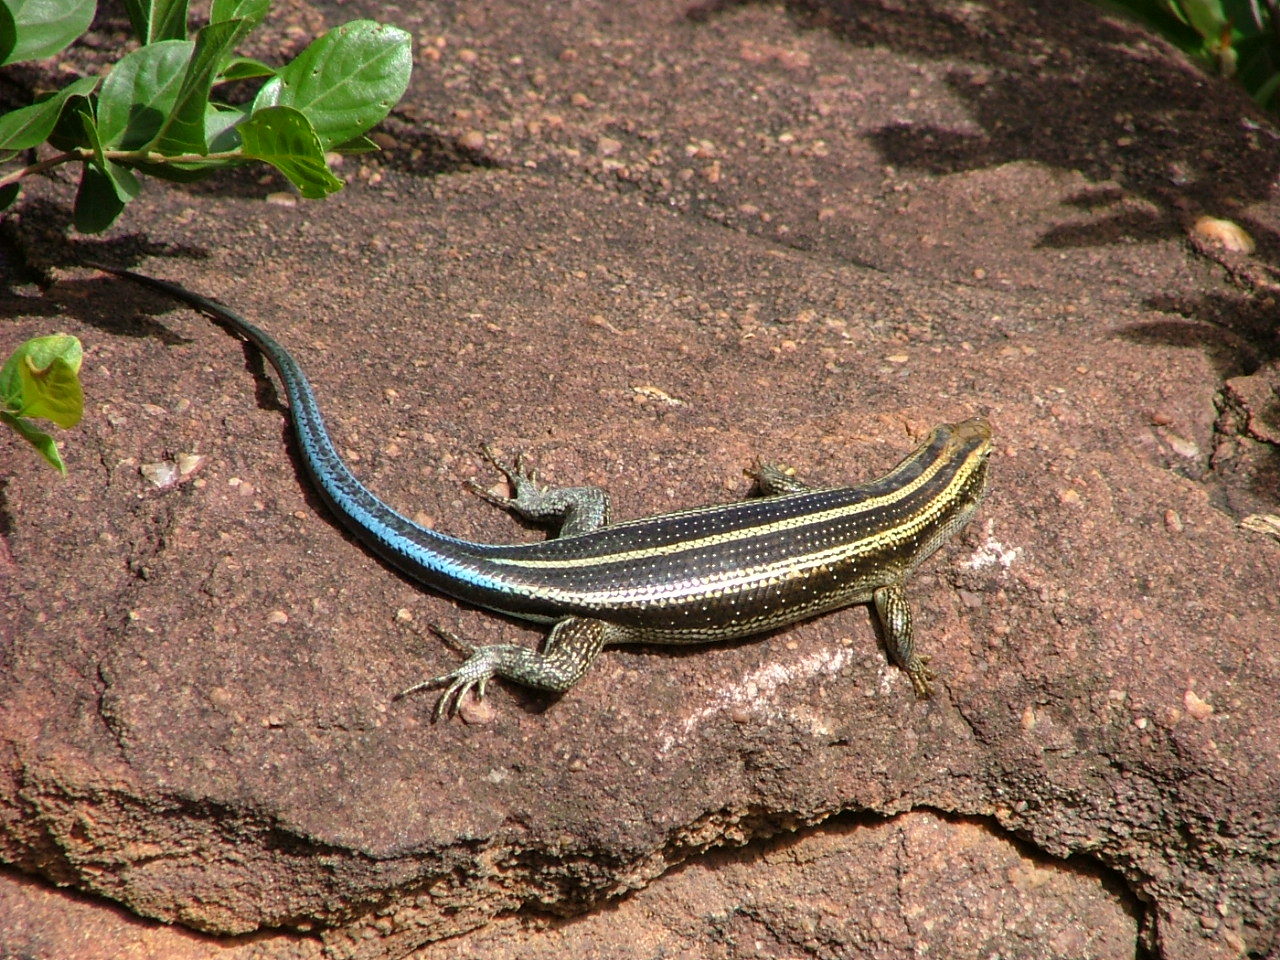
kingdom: Animalia
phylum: Chordata
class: Squamata
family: Scincidae
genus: Trachylepis
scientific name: Trachylepis margaritifera
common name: Rainbow skink
